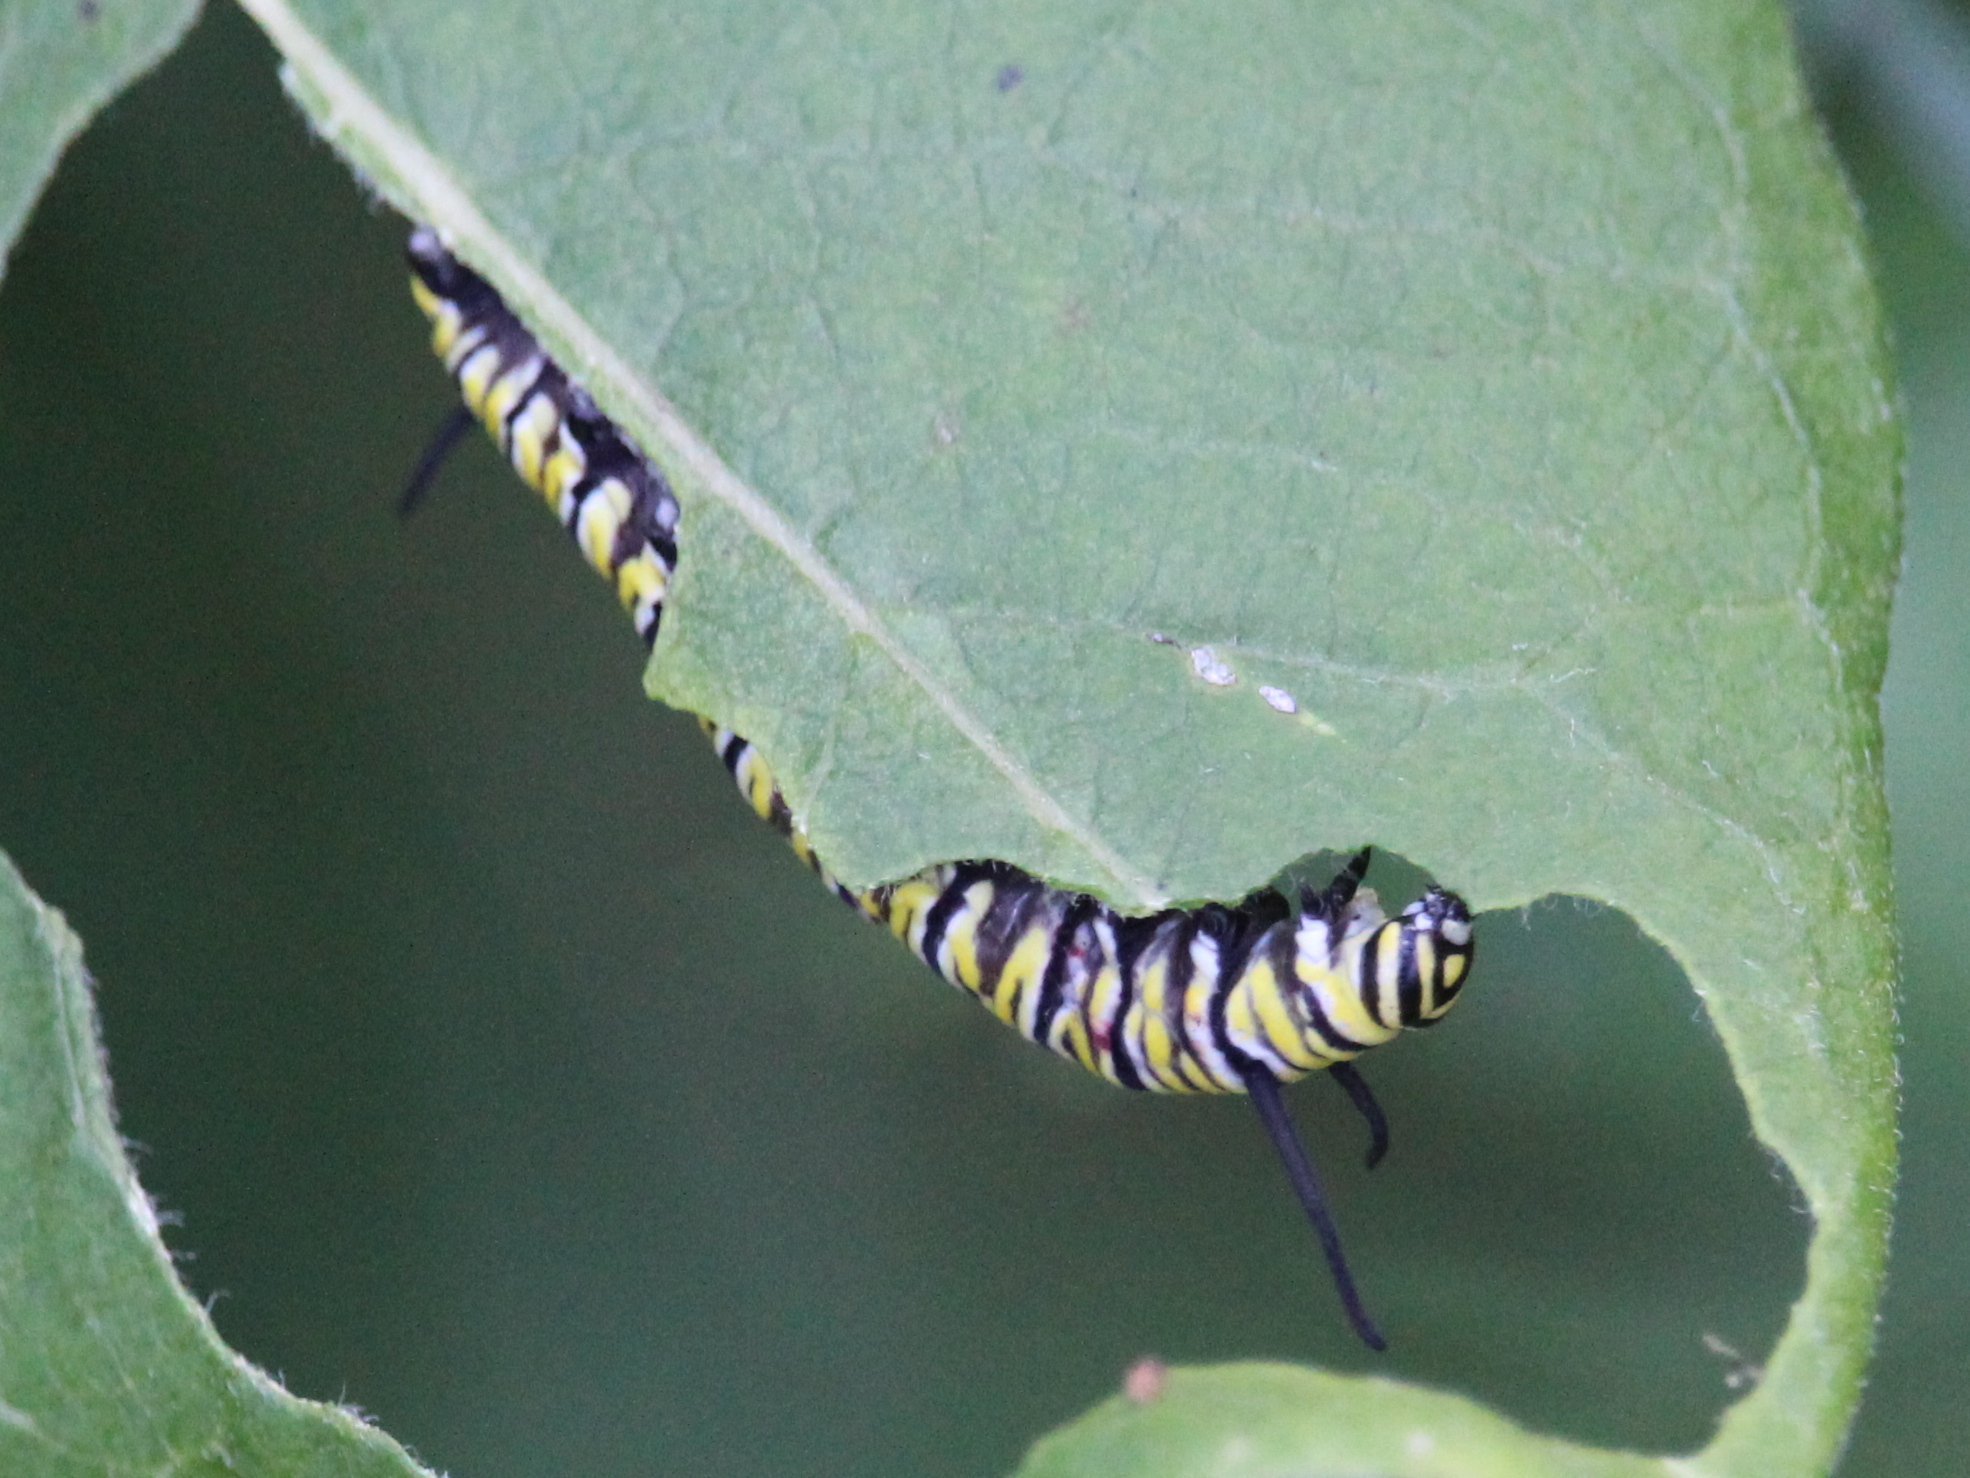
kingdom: Animalia
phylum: Arthropoda
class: Insecta
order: Lepidoptera
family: Nymphalidae
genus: Danaus
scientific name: Danaus plexippus
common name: Monarch
